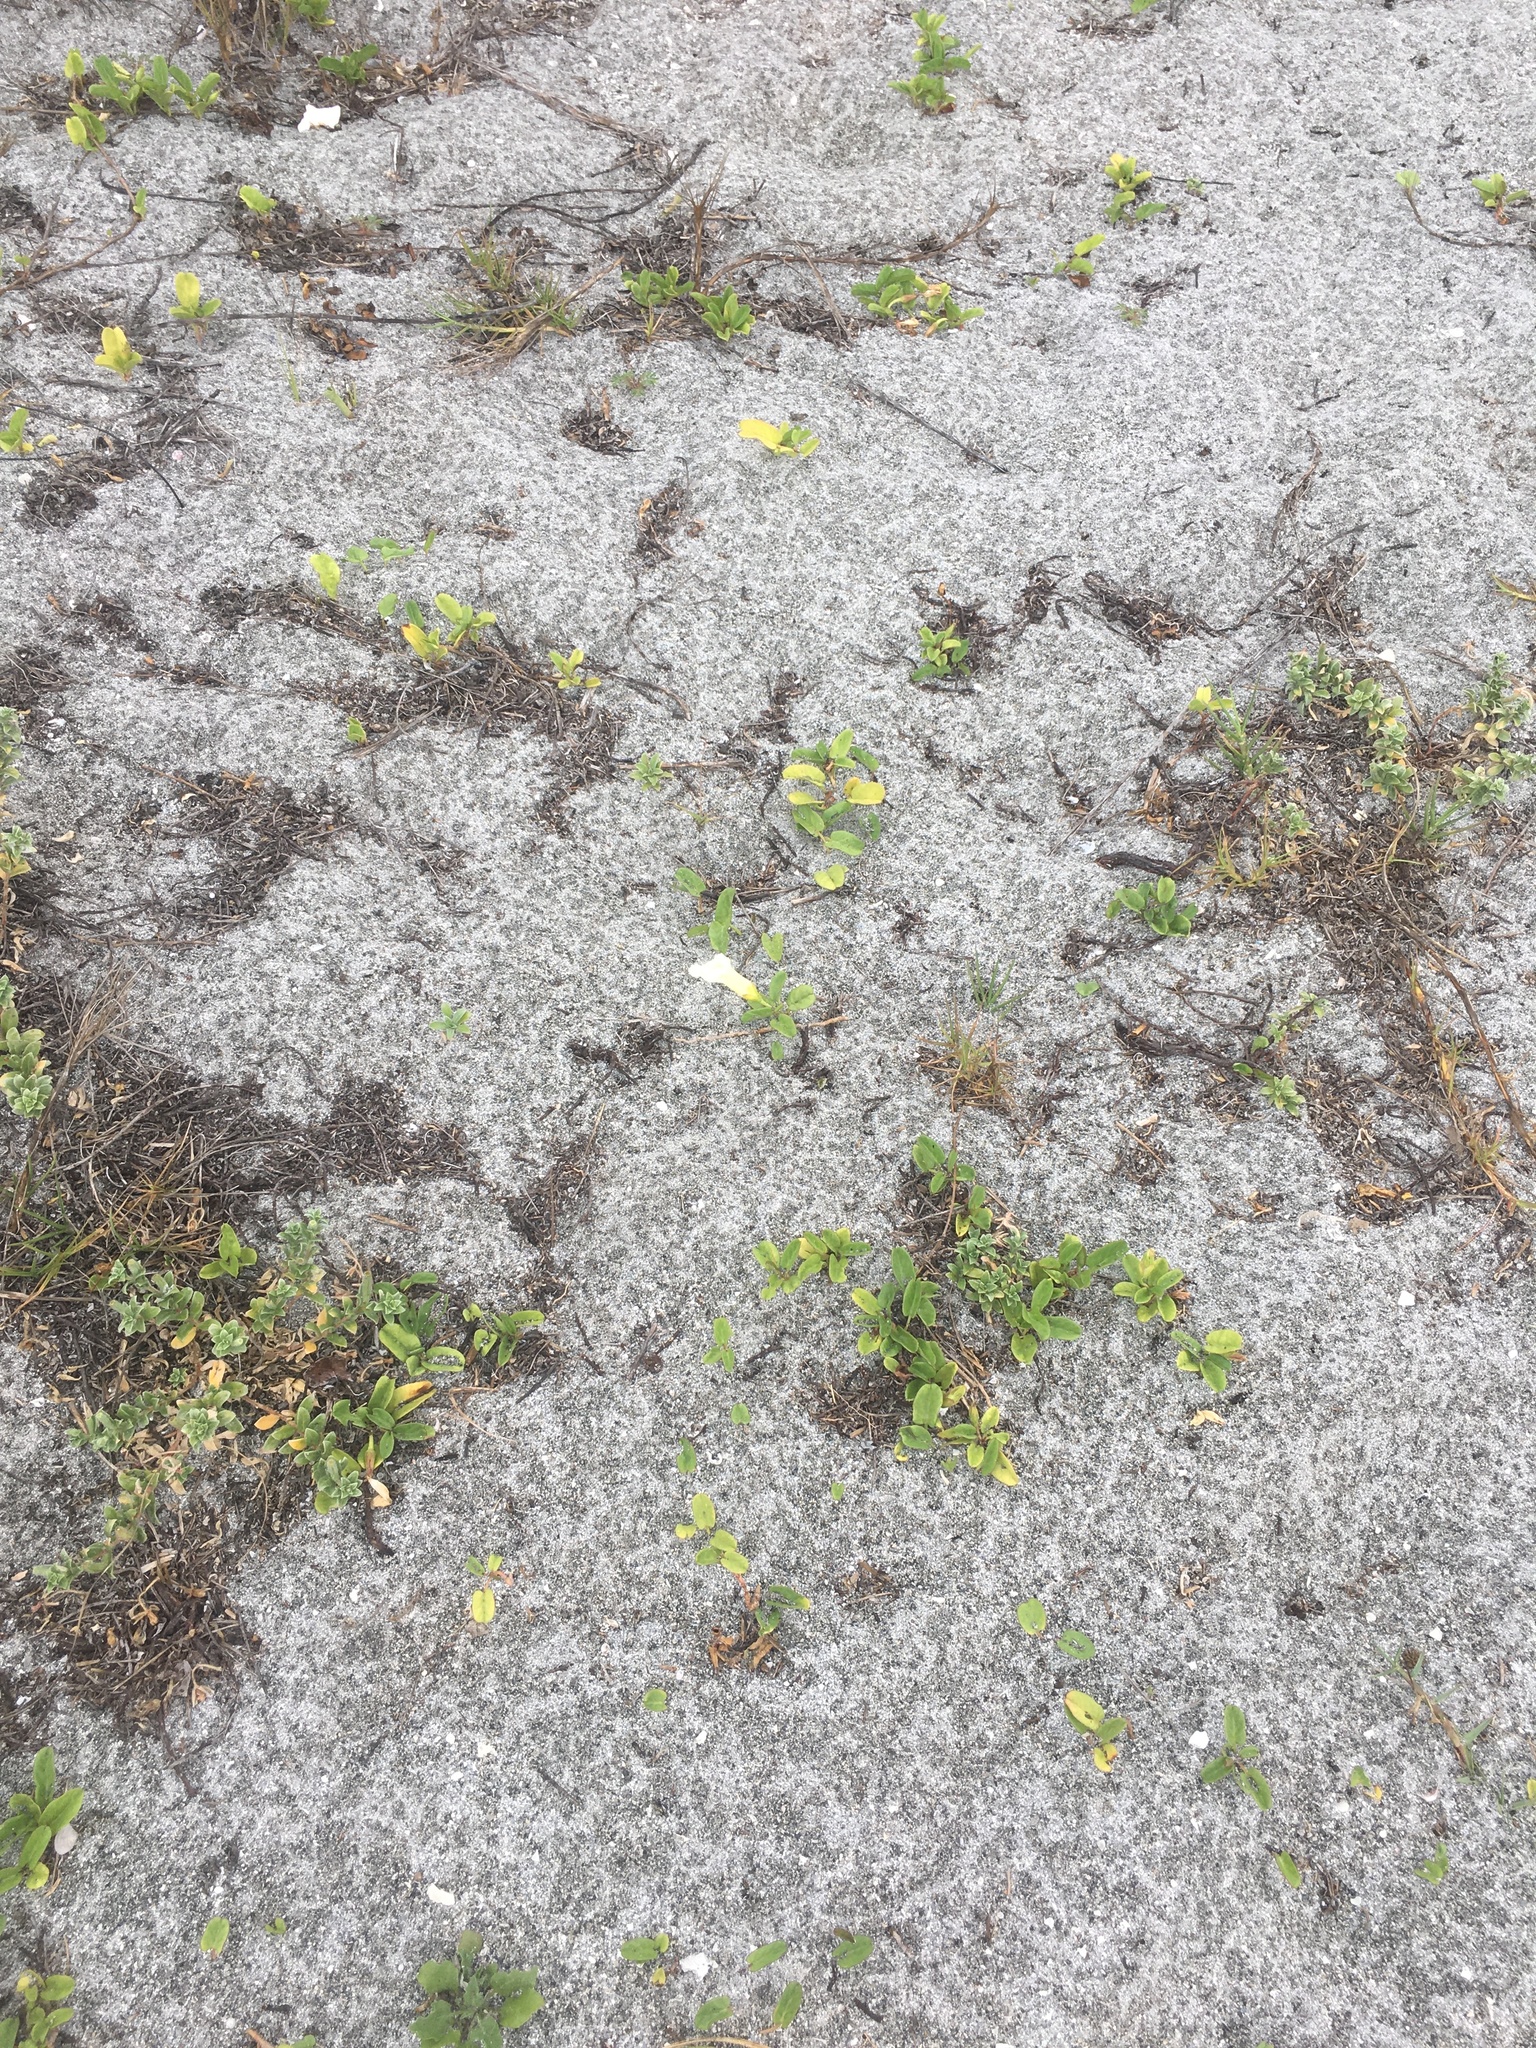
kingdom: Plantae
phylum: Tracheophyta
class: Magnoliopsida
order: Solanales
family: Convolvulaceae
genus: Ipomoea
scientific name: Ipomoea imperati
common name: Fiddle-leaf morning-glory
